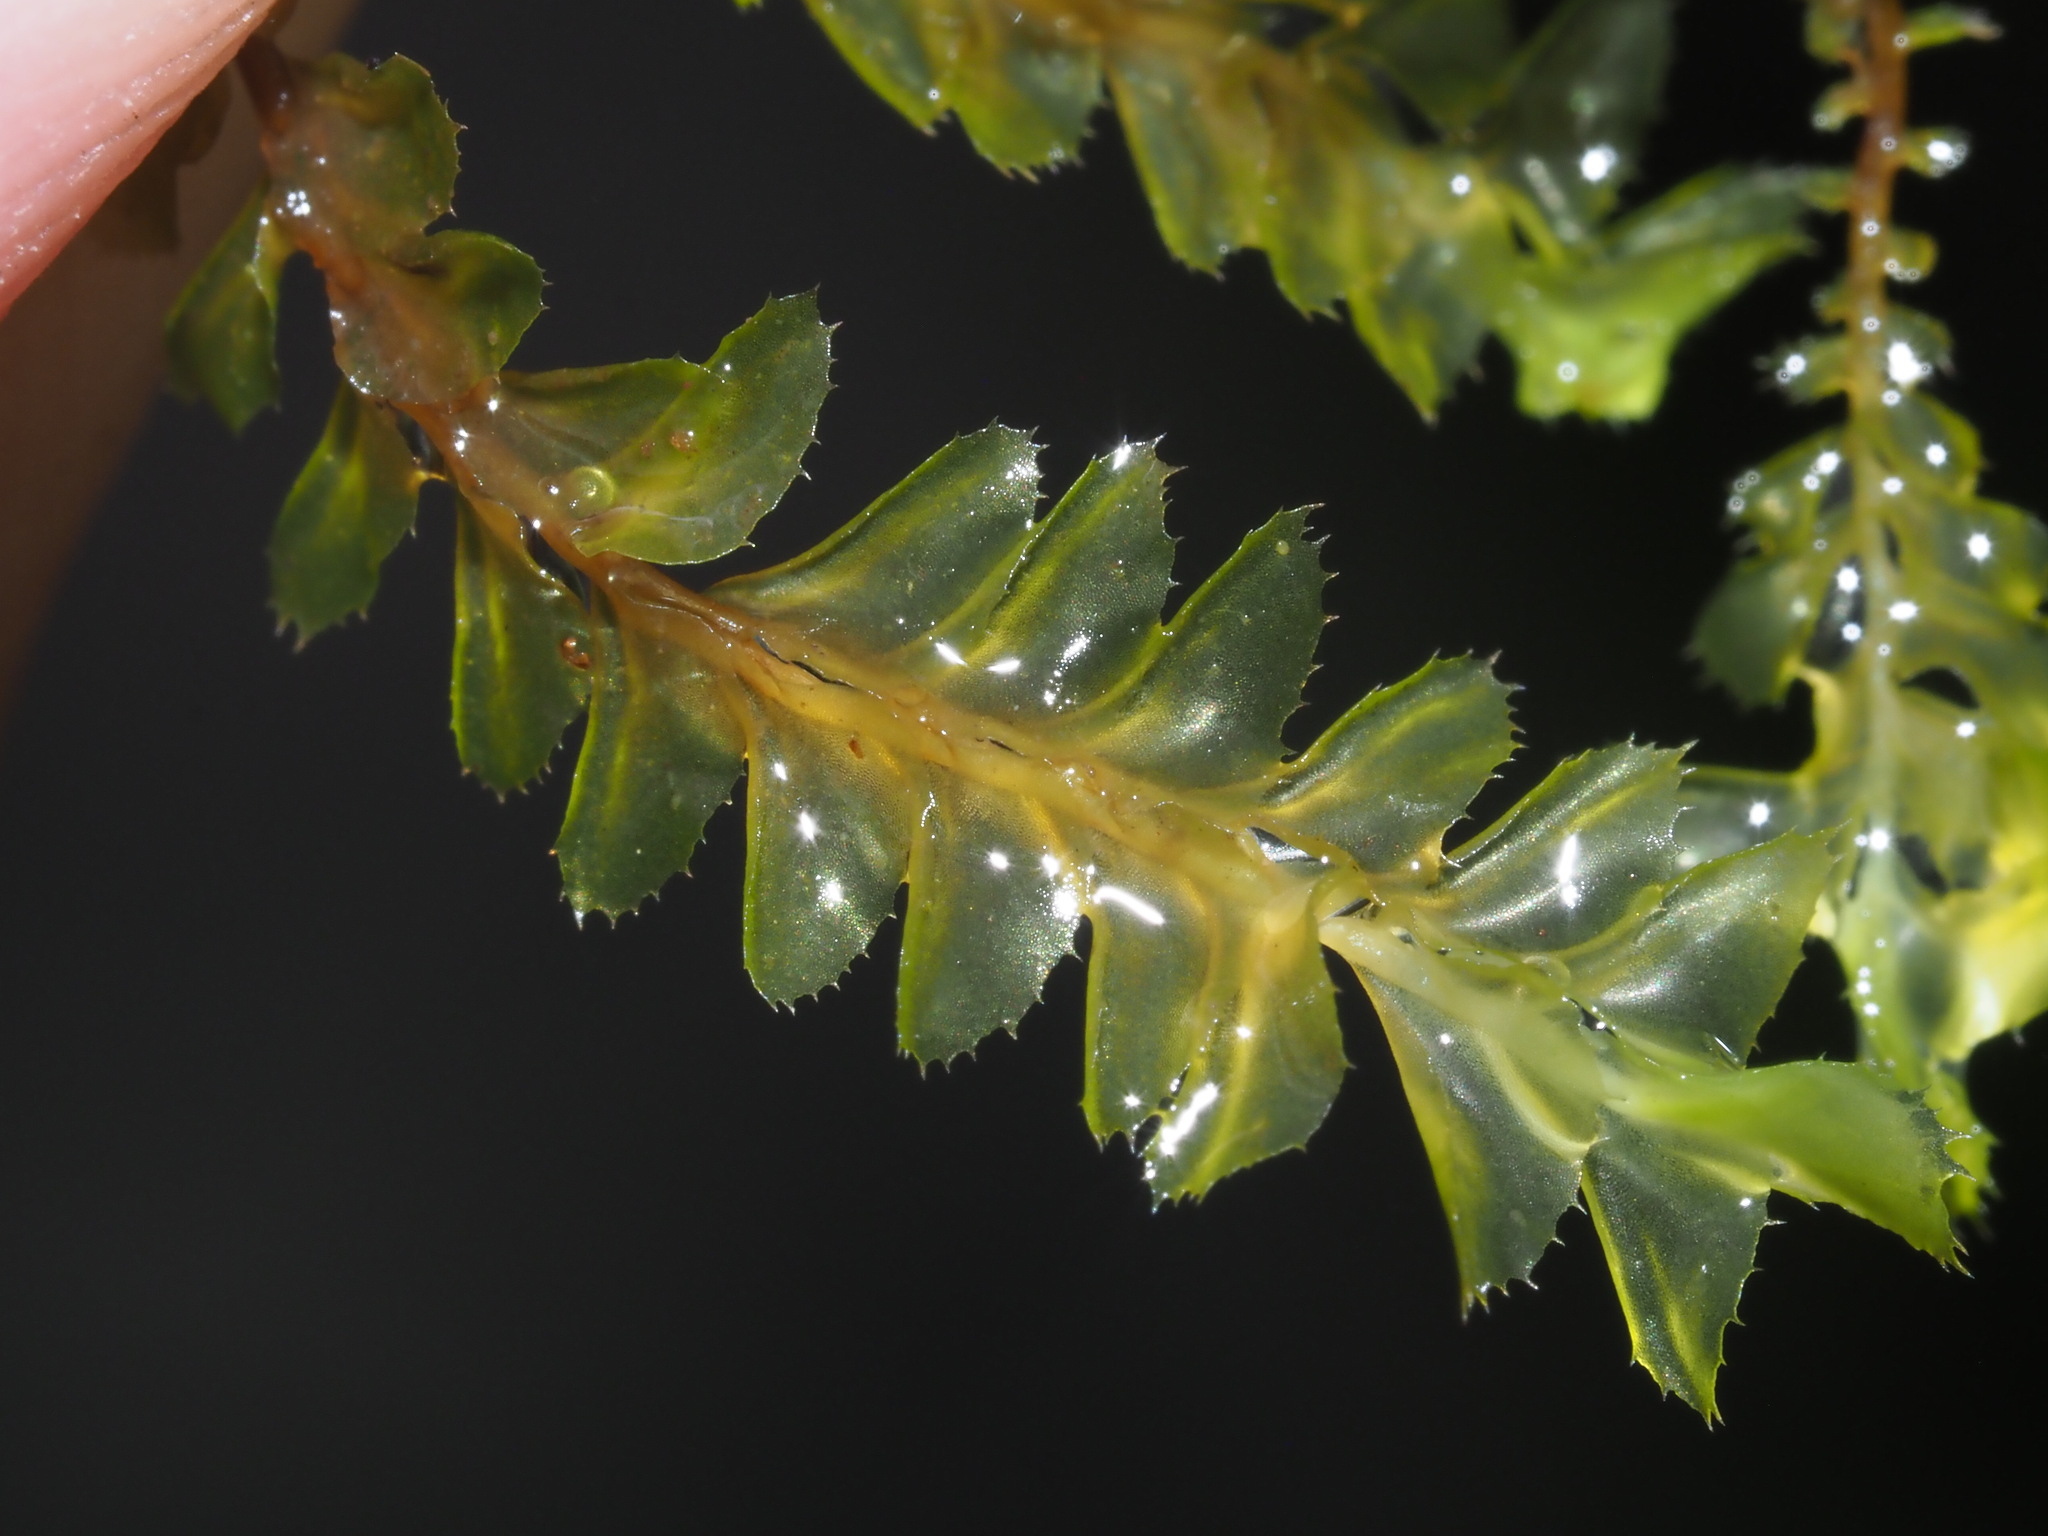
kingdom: Plantae
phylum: Marchantiophyta
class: Jungermanniopsida
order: Jungermanniales
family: Plagiochilaceae
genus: Plagiochila
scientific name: Plagiochila deflexa
